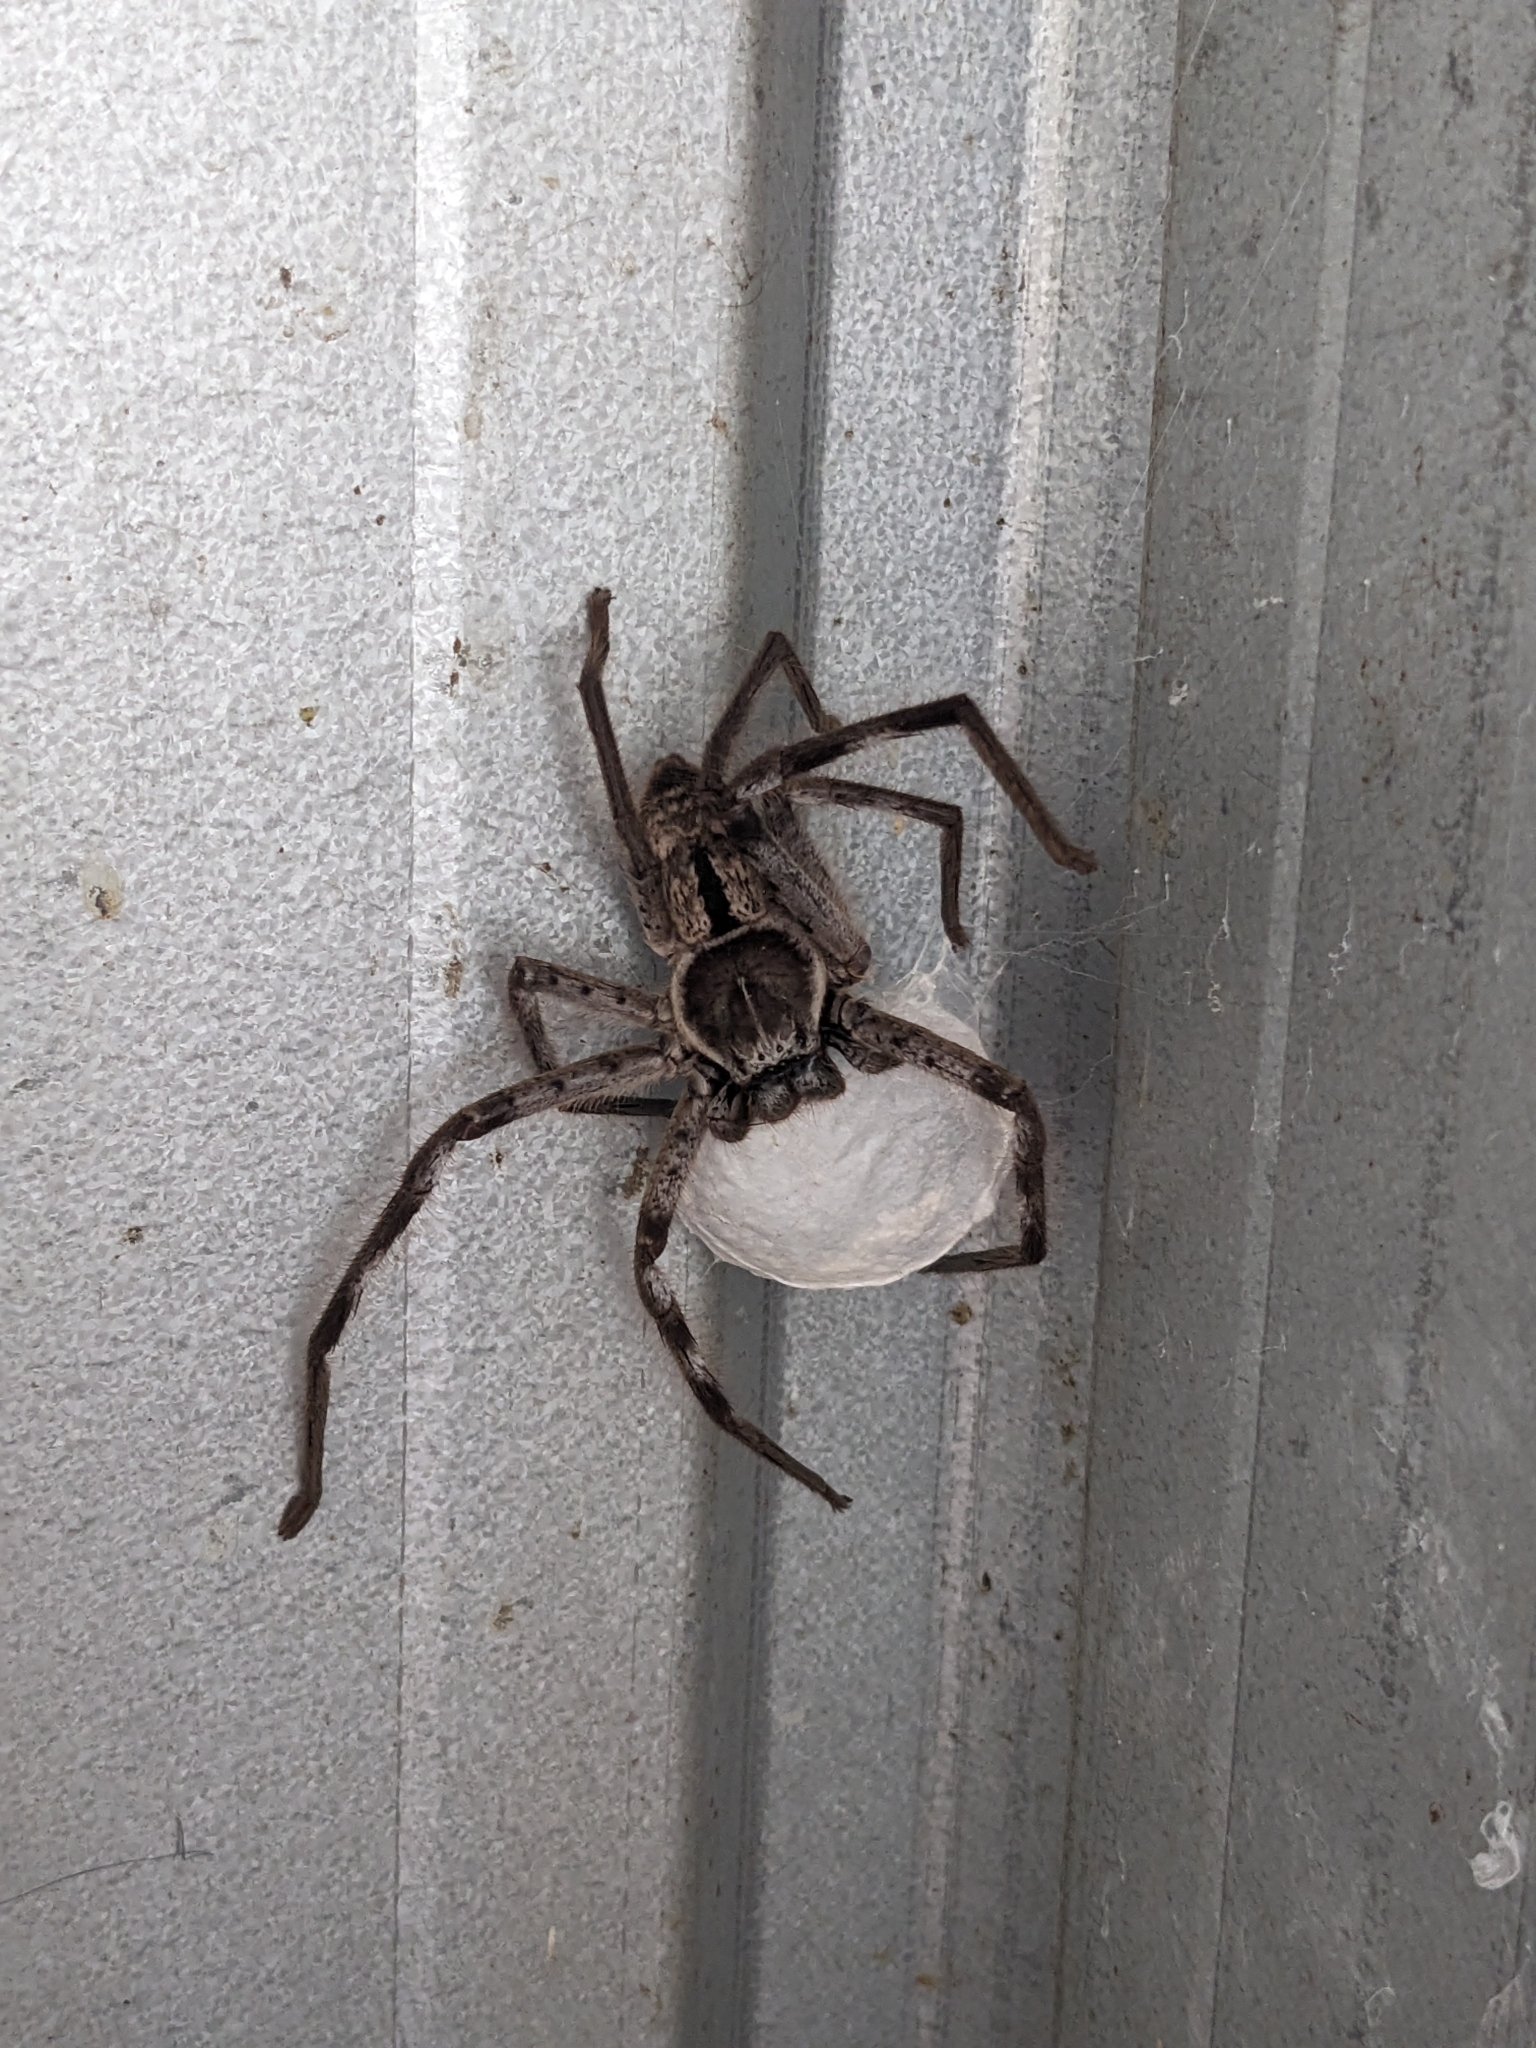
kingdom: Animalia
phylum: Arthropoda
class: Arachnida
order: Araneae
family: Sparassidae
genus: Holconia
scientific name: Holconia immanis
